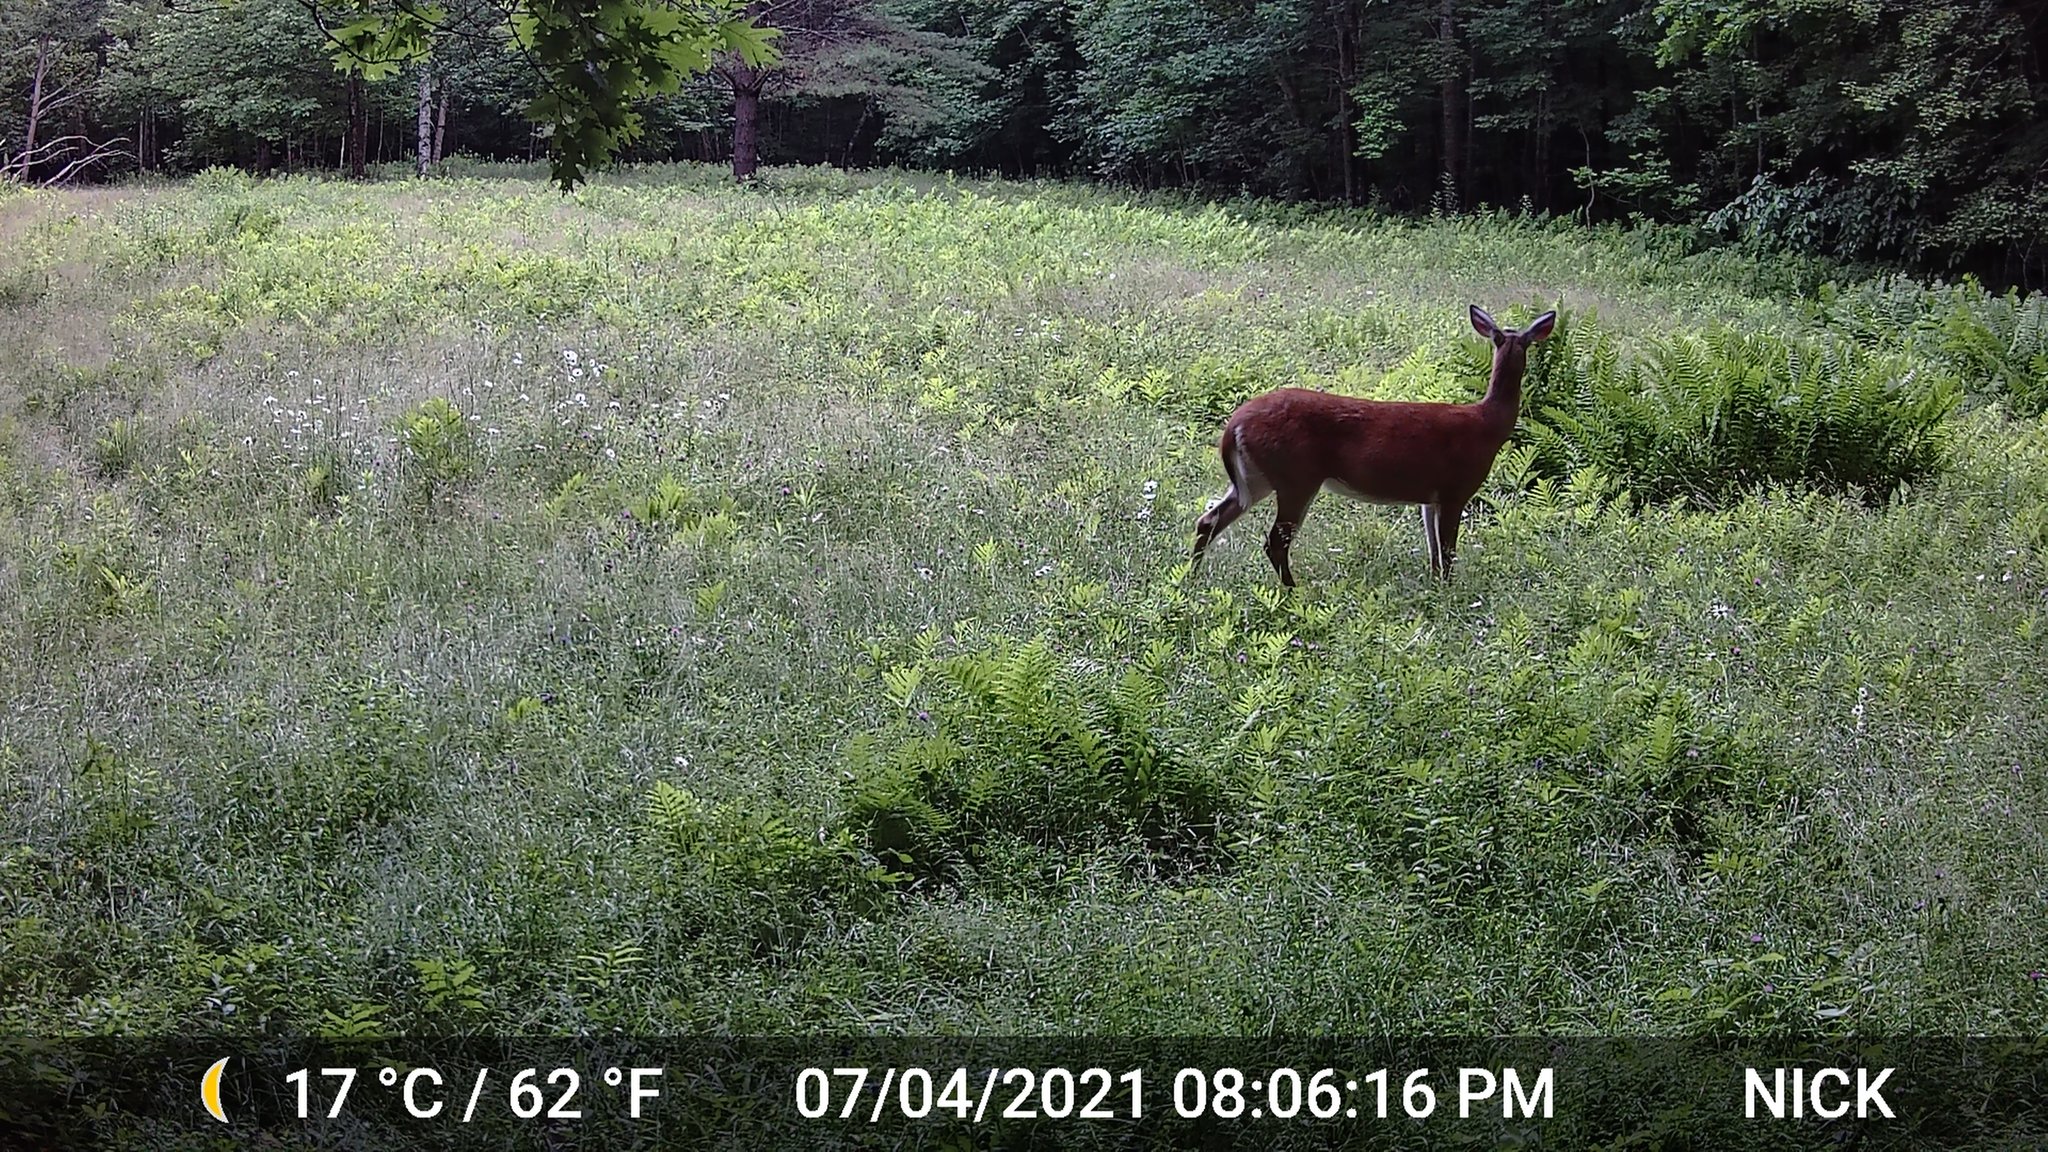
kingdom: Animalia
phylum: Chordata
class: Mammalia
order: Artiodactyla
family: Cervidae
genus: Odocoileus
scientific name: Odocoileus virginianus
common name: White-tailed deer
